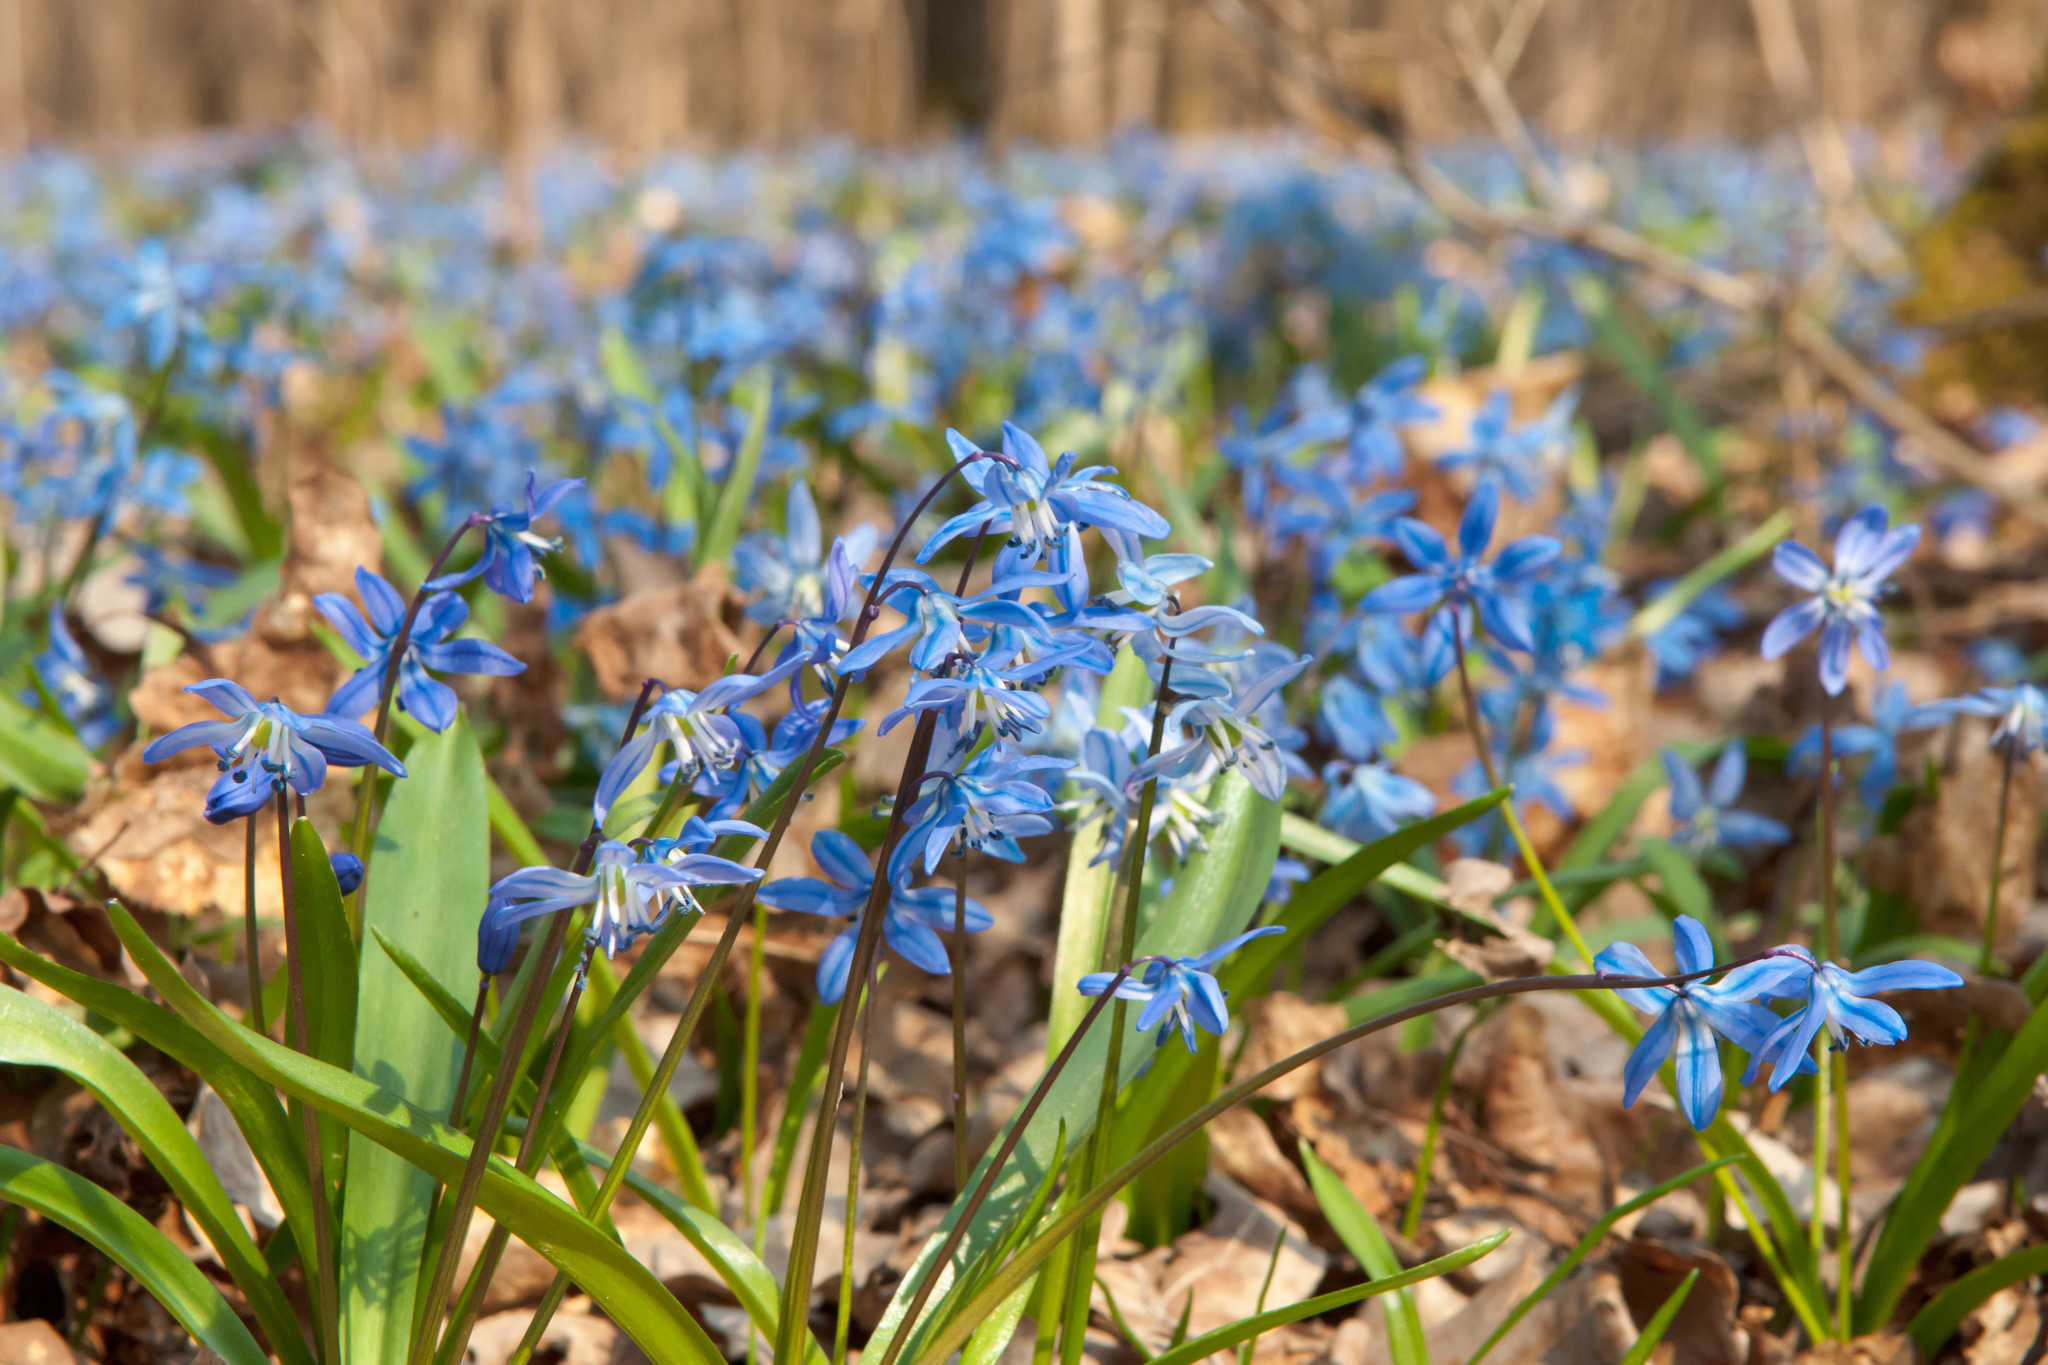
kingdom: Plantae
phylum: Tracheophyta
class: Liliopsida
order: Asparagales
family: Asparagaceae
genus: Scilla
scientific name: Scilla siberica
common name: Siberian squill
